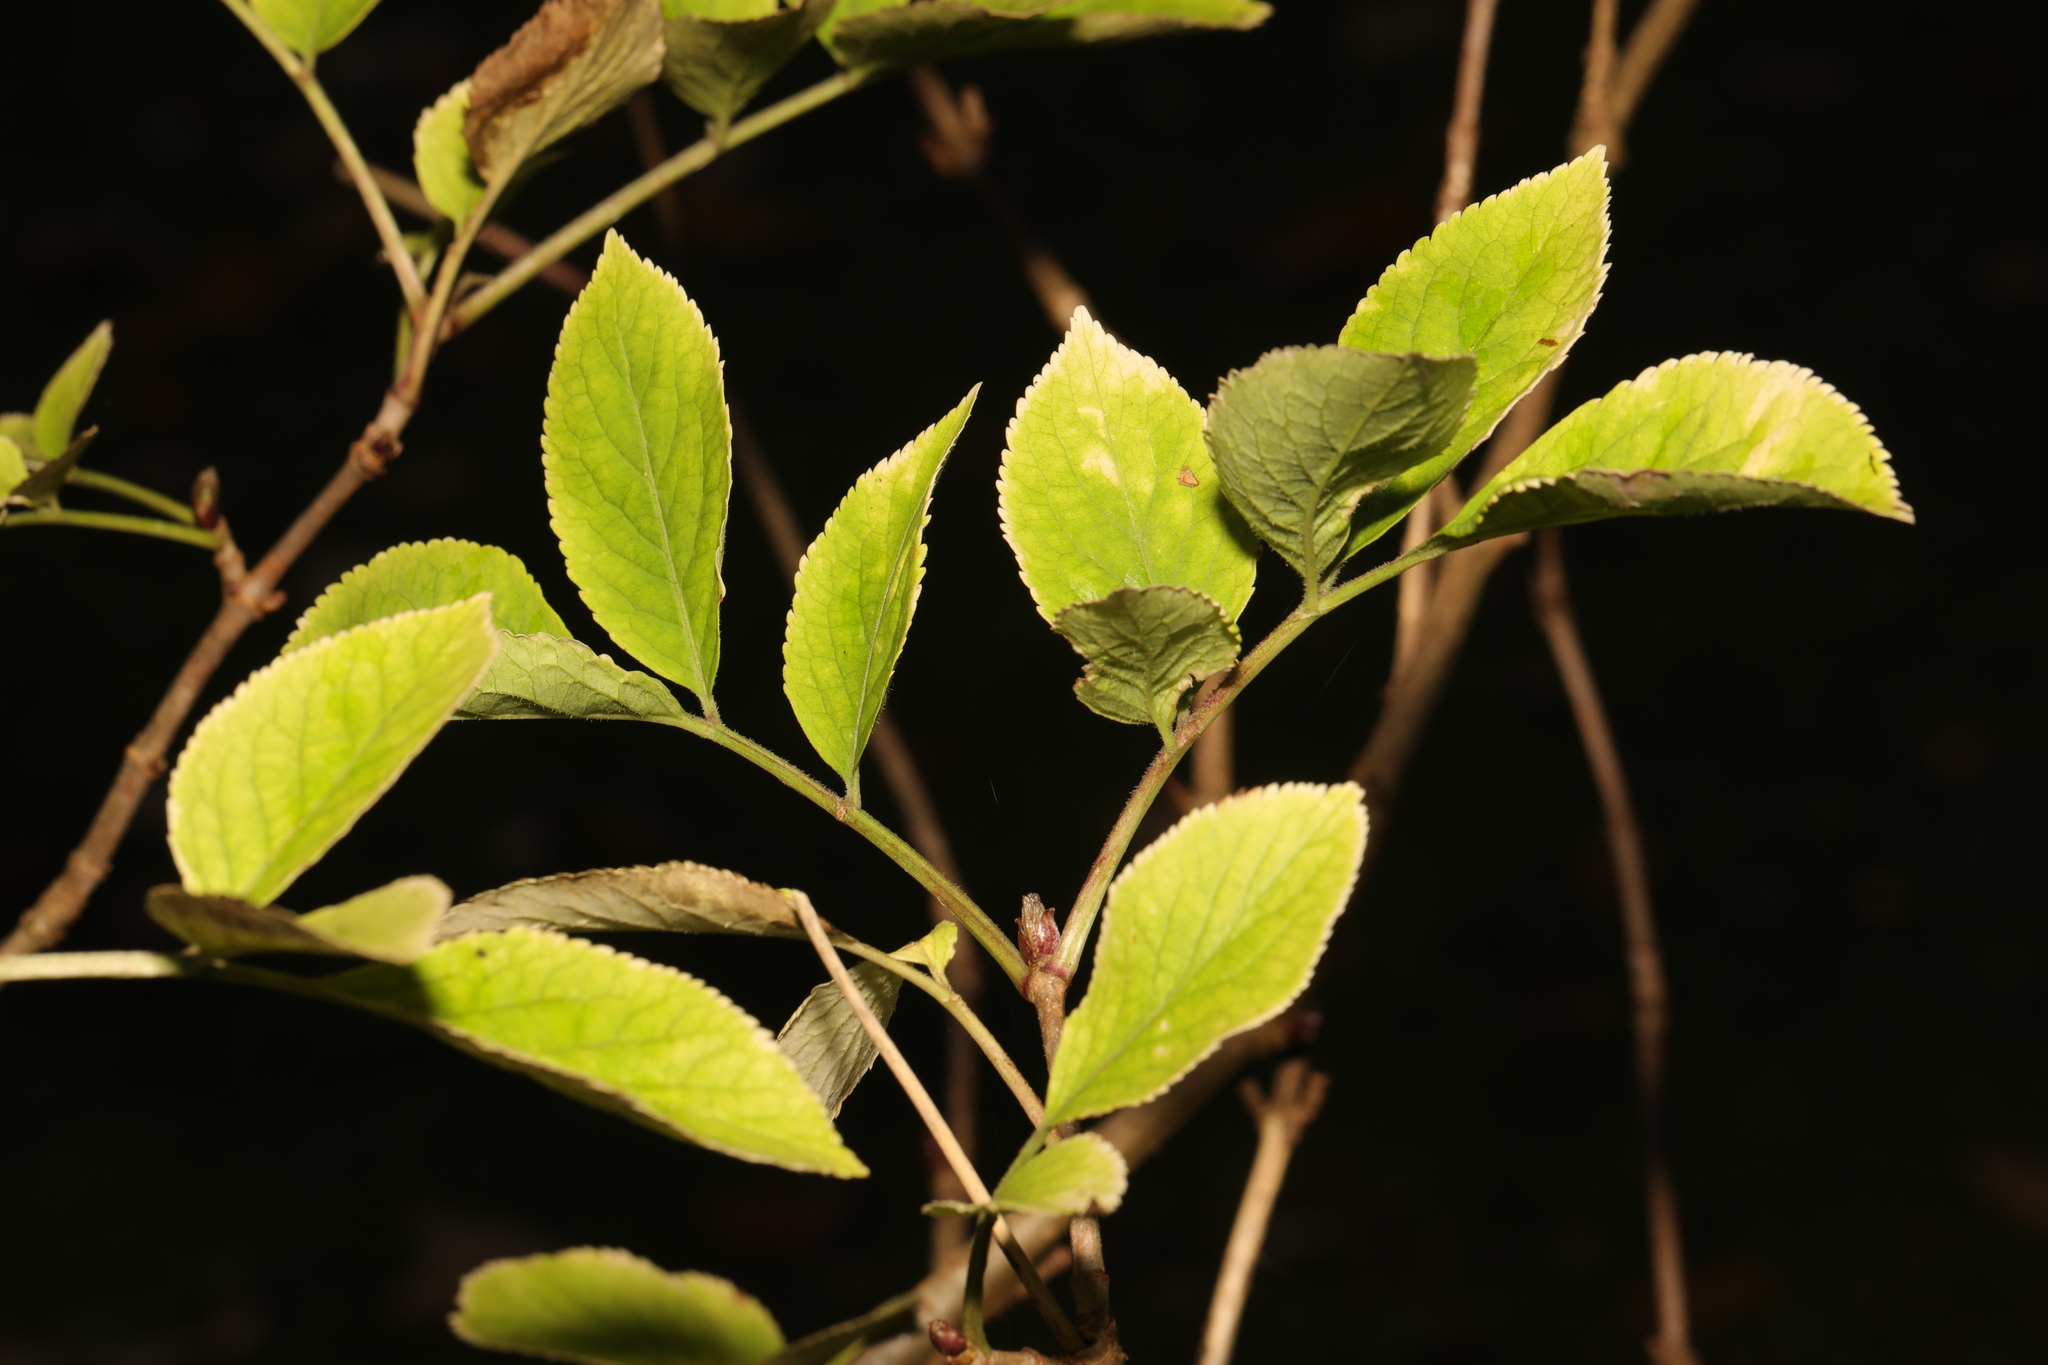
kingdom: Plantae
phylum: Tracheophyta
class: Magnoliopsida
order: Dipsacales
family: Viburnaceae
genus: Sambucus
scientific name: Sambucus nigra
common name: Elder
